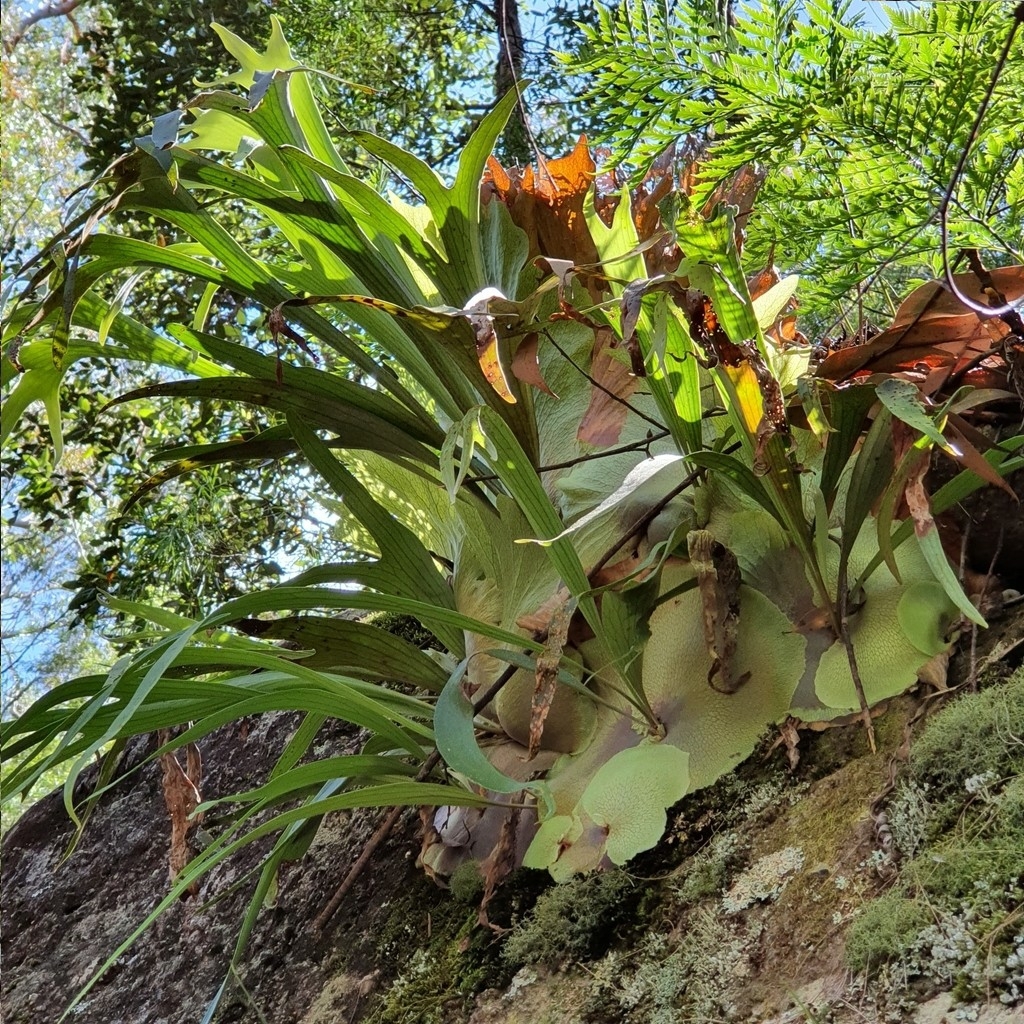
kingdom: Plantae
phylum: Tracheophyta
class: Polypodiopsida
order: Polypodiales
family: Polypodiaceae
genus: Platycerium
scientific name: Platycerium bifurcatum
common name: Elkhorn fern
